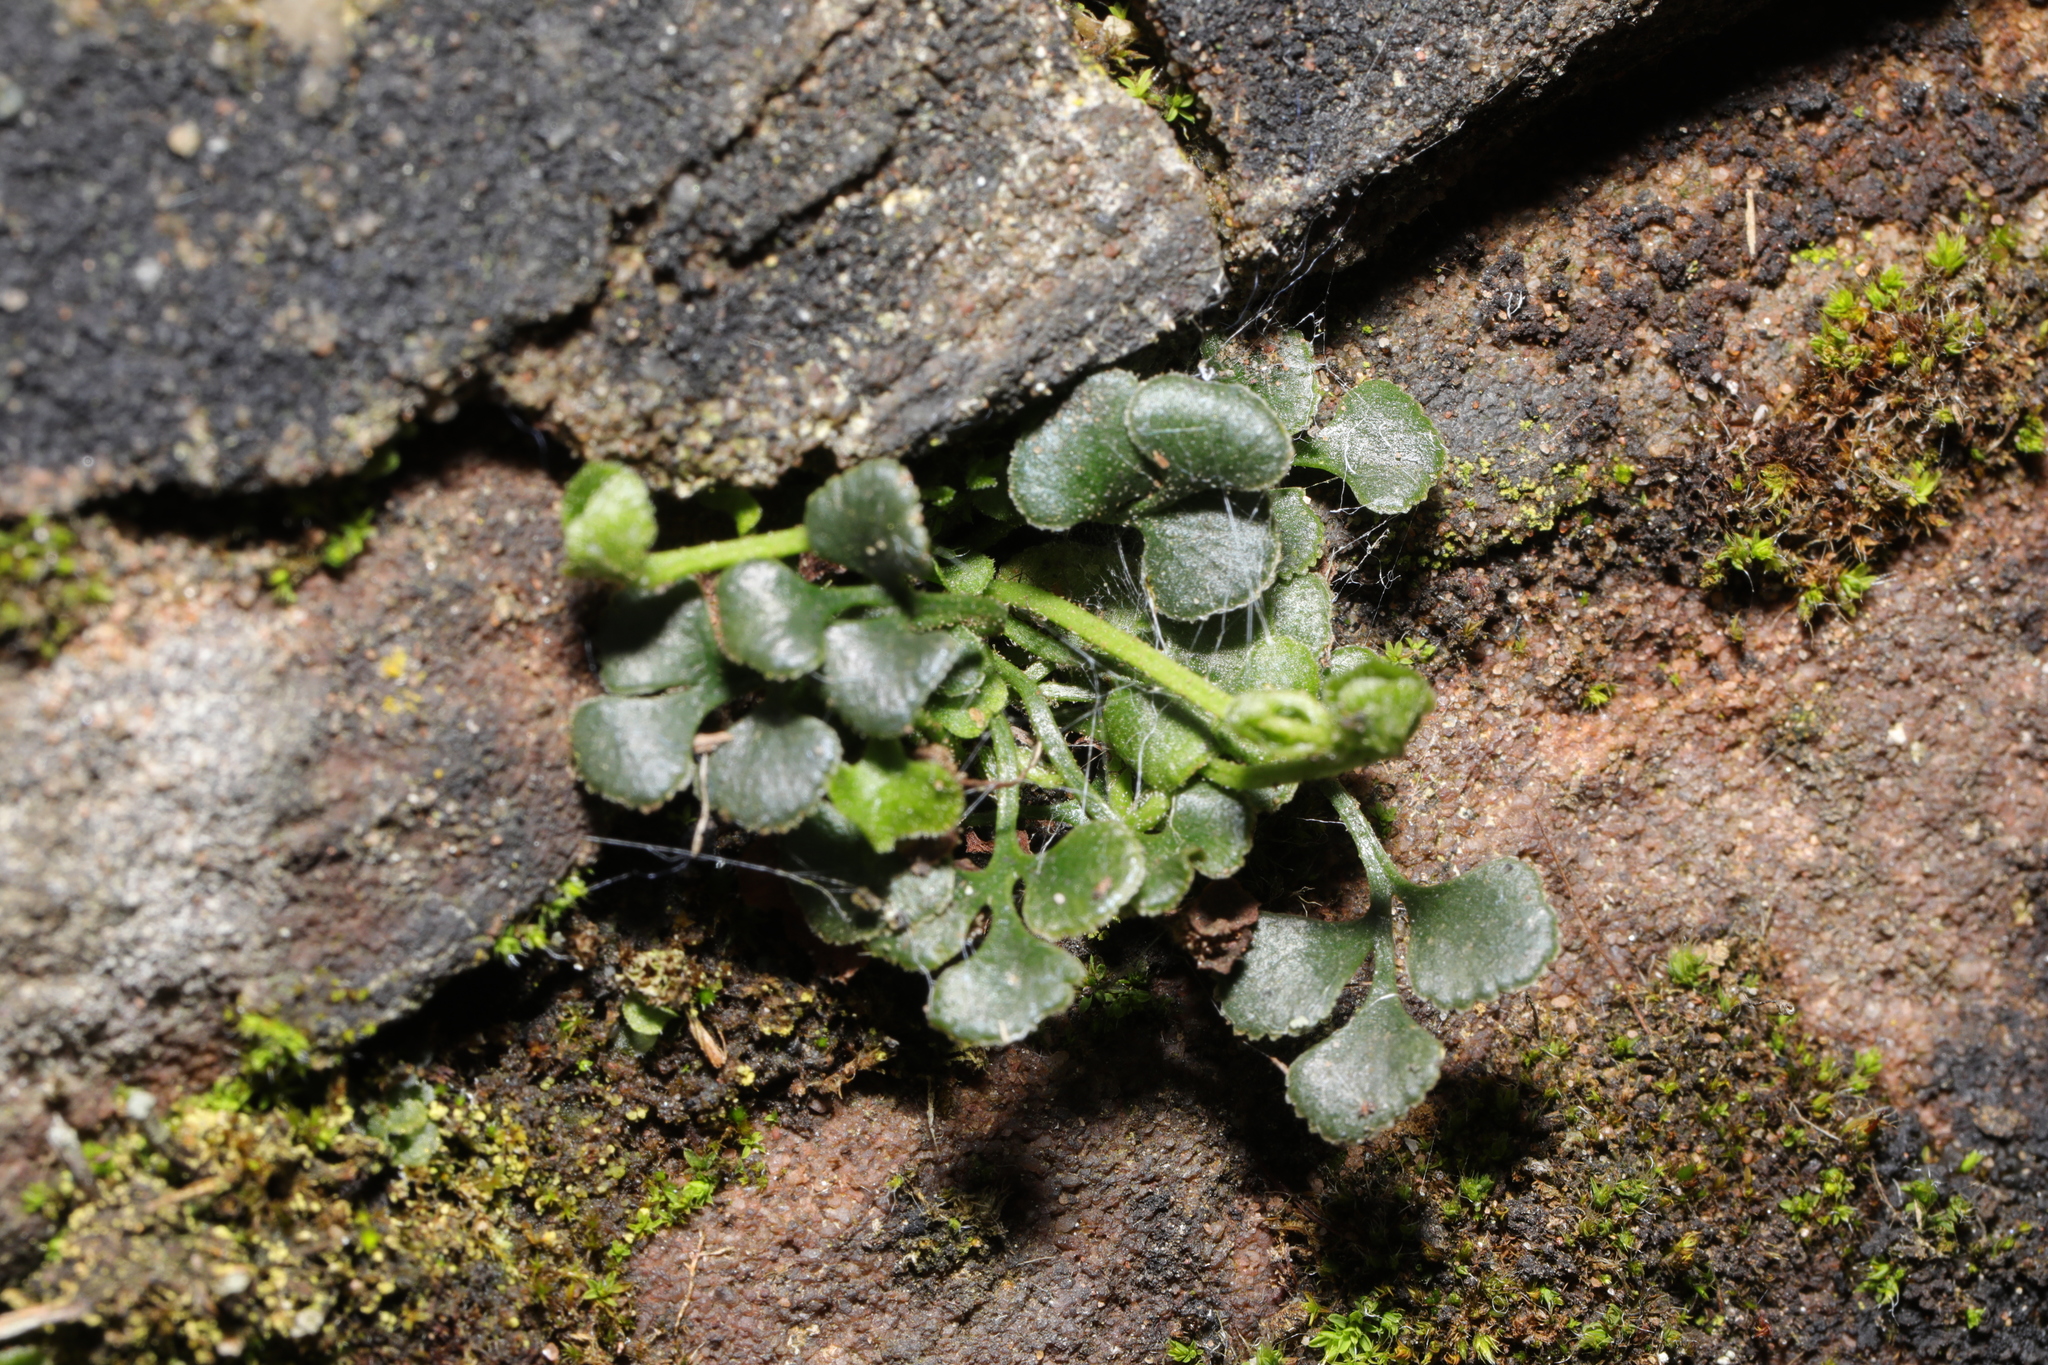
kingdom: Plantae
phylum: Tracheophyta
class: Polypodiopsida
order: Polypodiales
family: Aspleniaceae
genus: Asplenium
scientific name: Asplenium ruta-muraria
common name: Wall-rue
